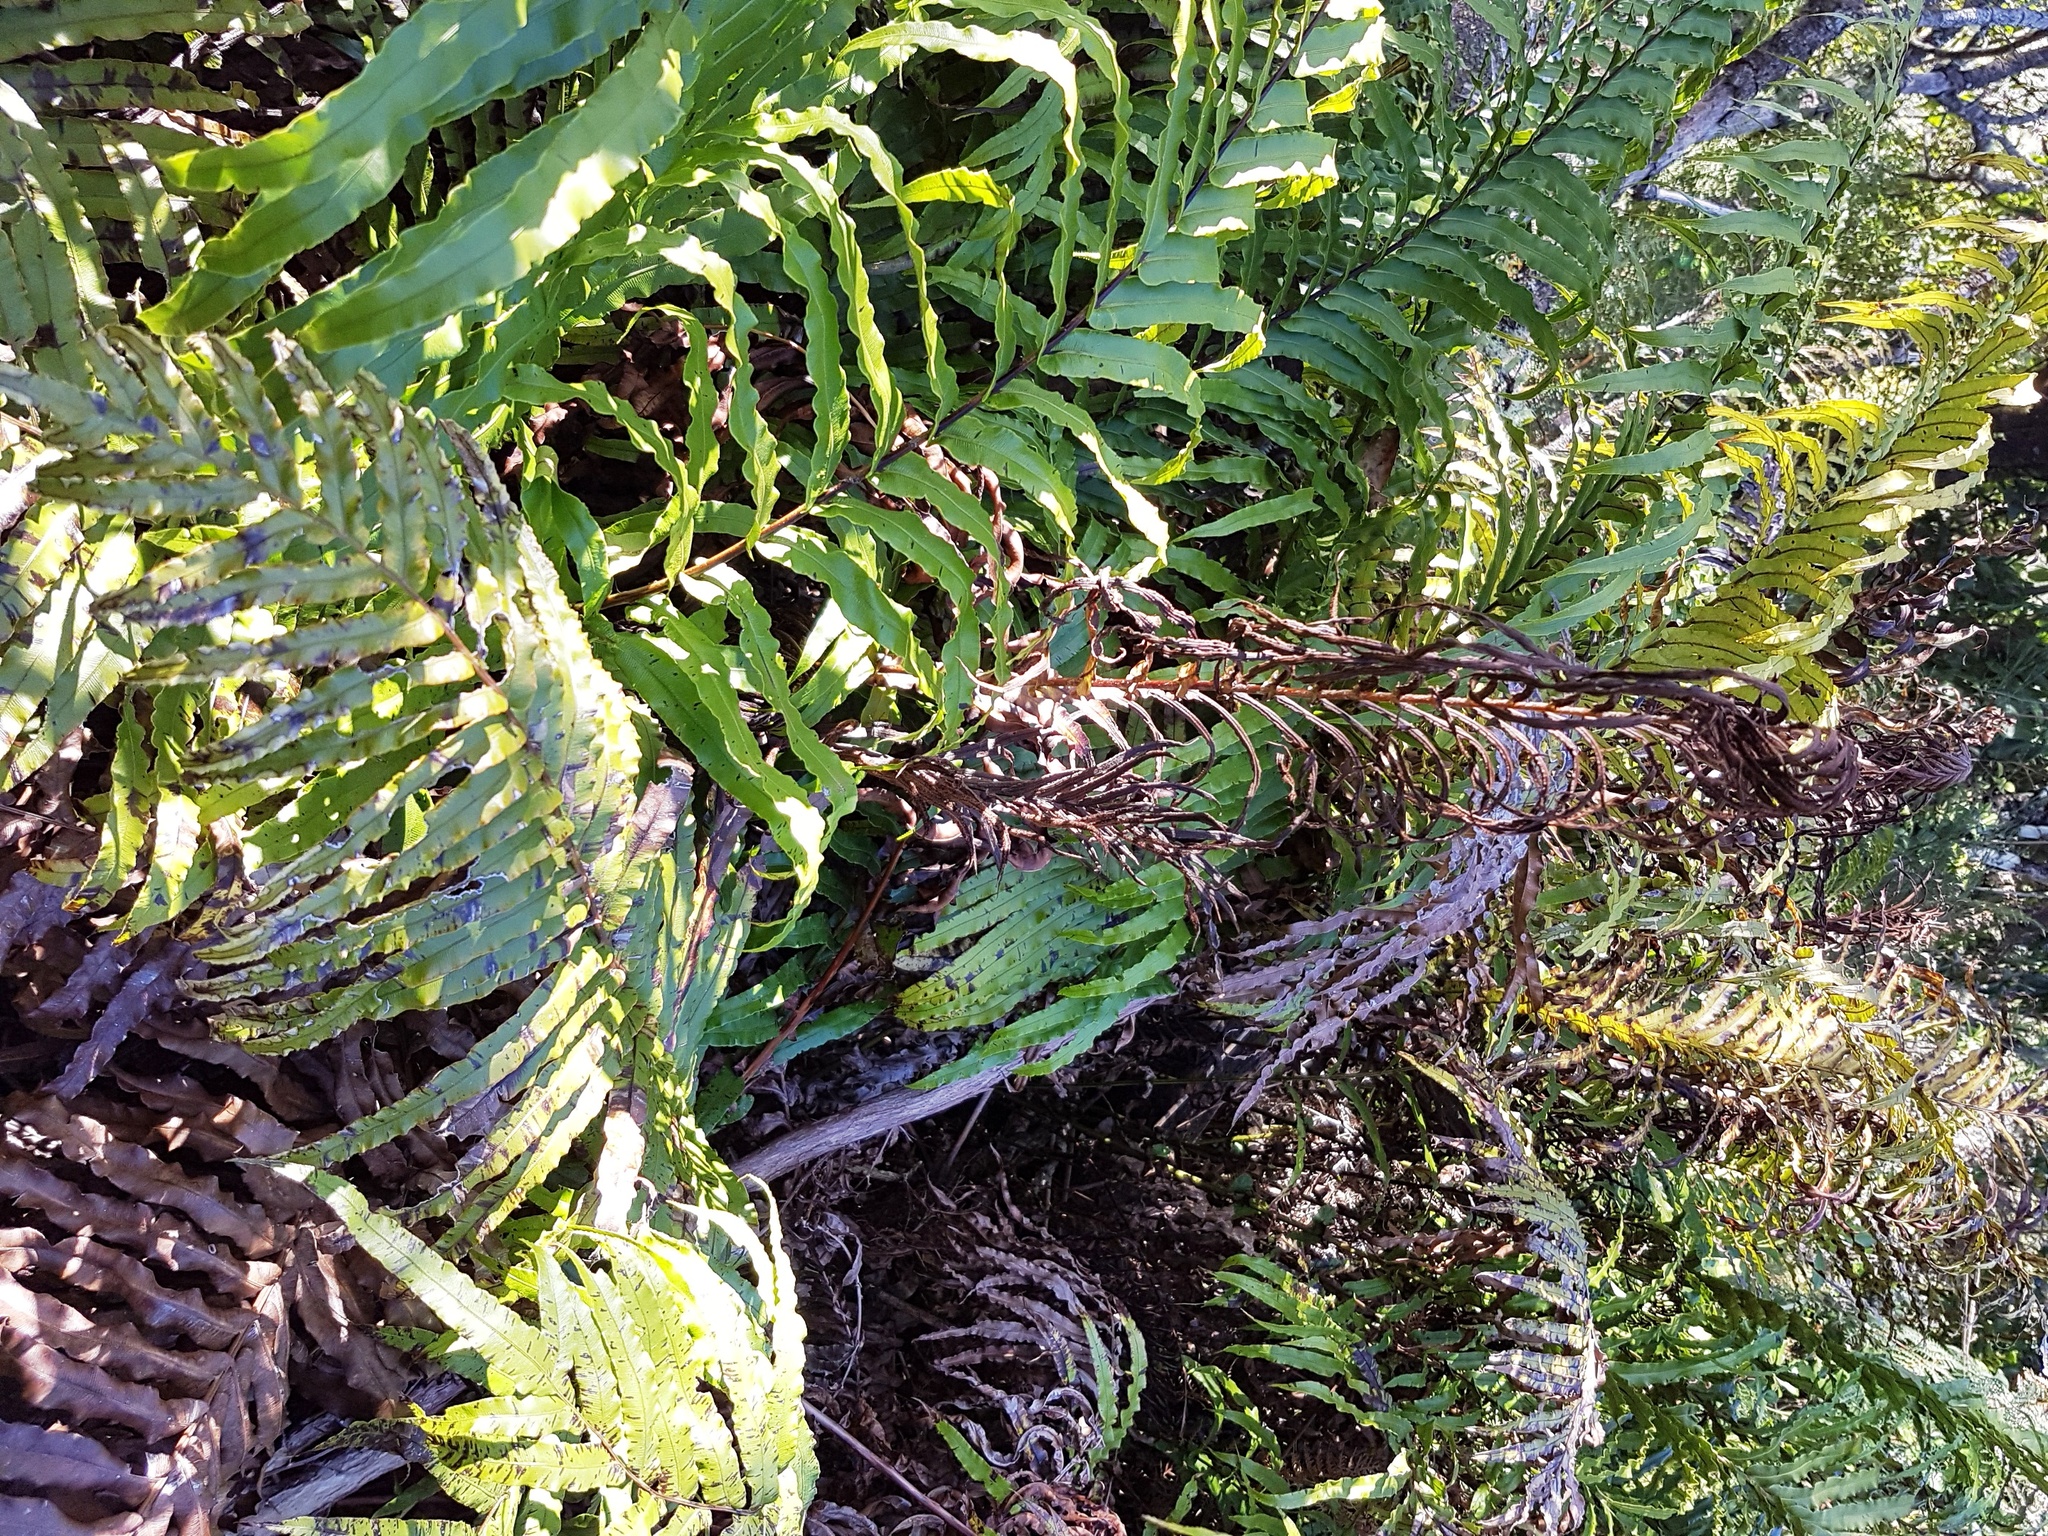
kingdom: Plantae
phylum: Tracheophyta
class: Polypodiopsida
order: Polypodiales
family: Blechnaceae
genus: Parablechnum
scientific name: Parablechnum novae-zelandiae
